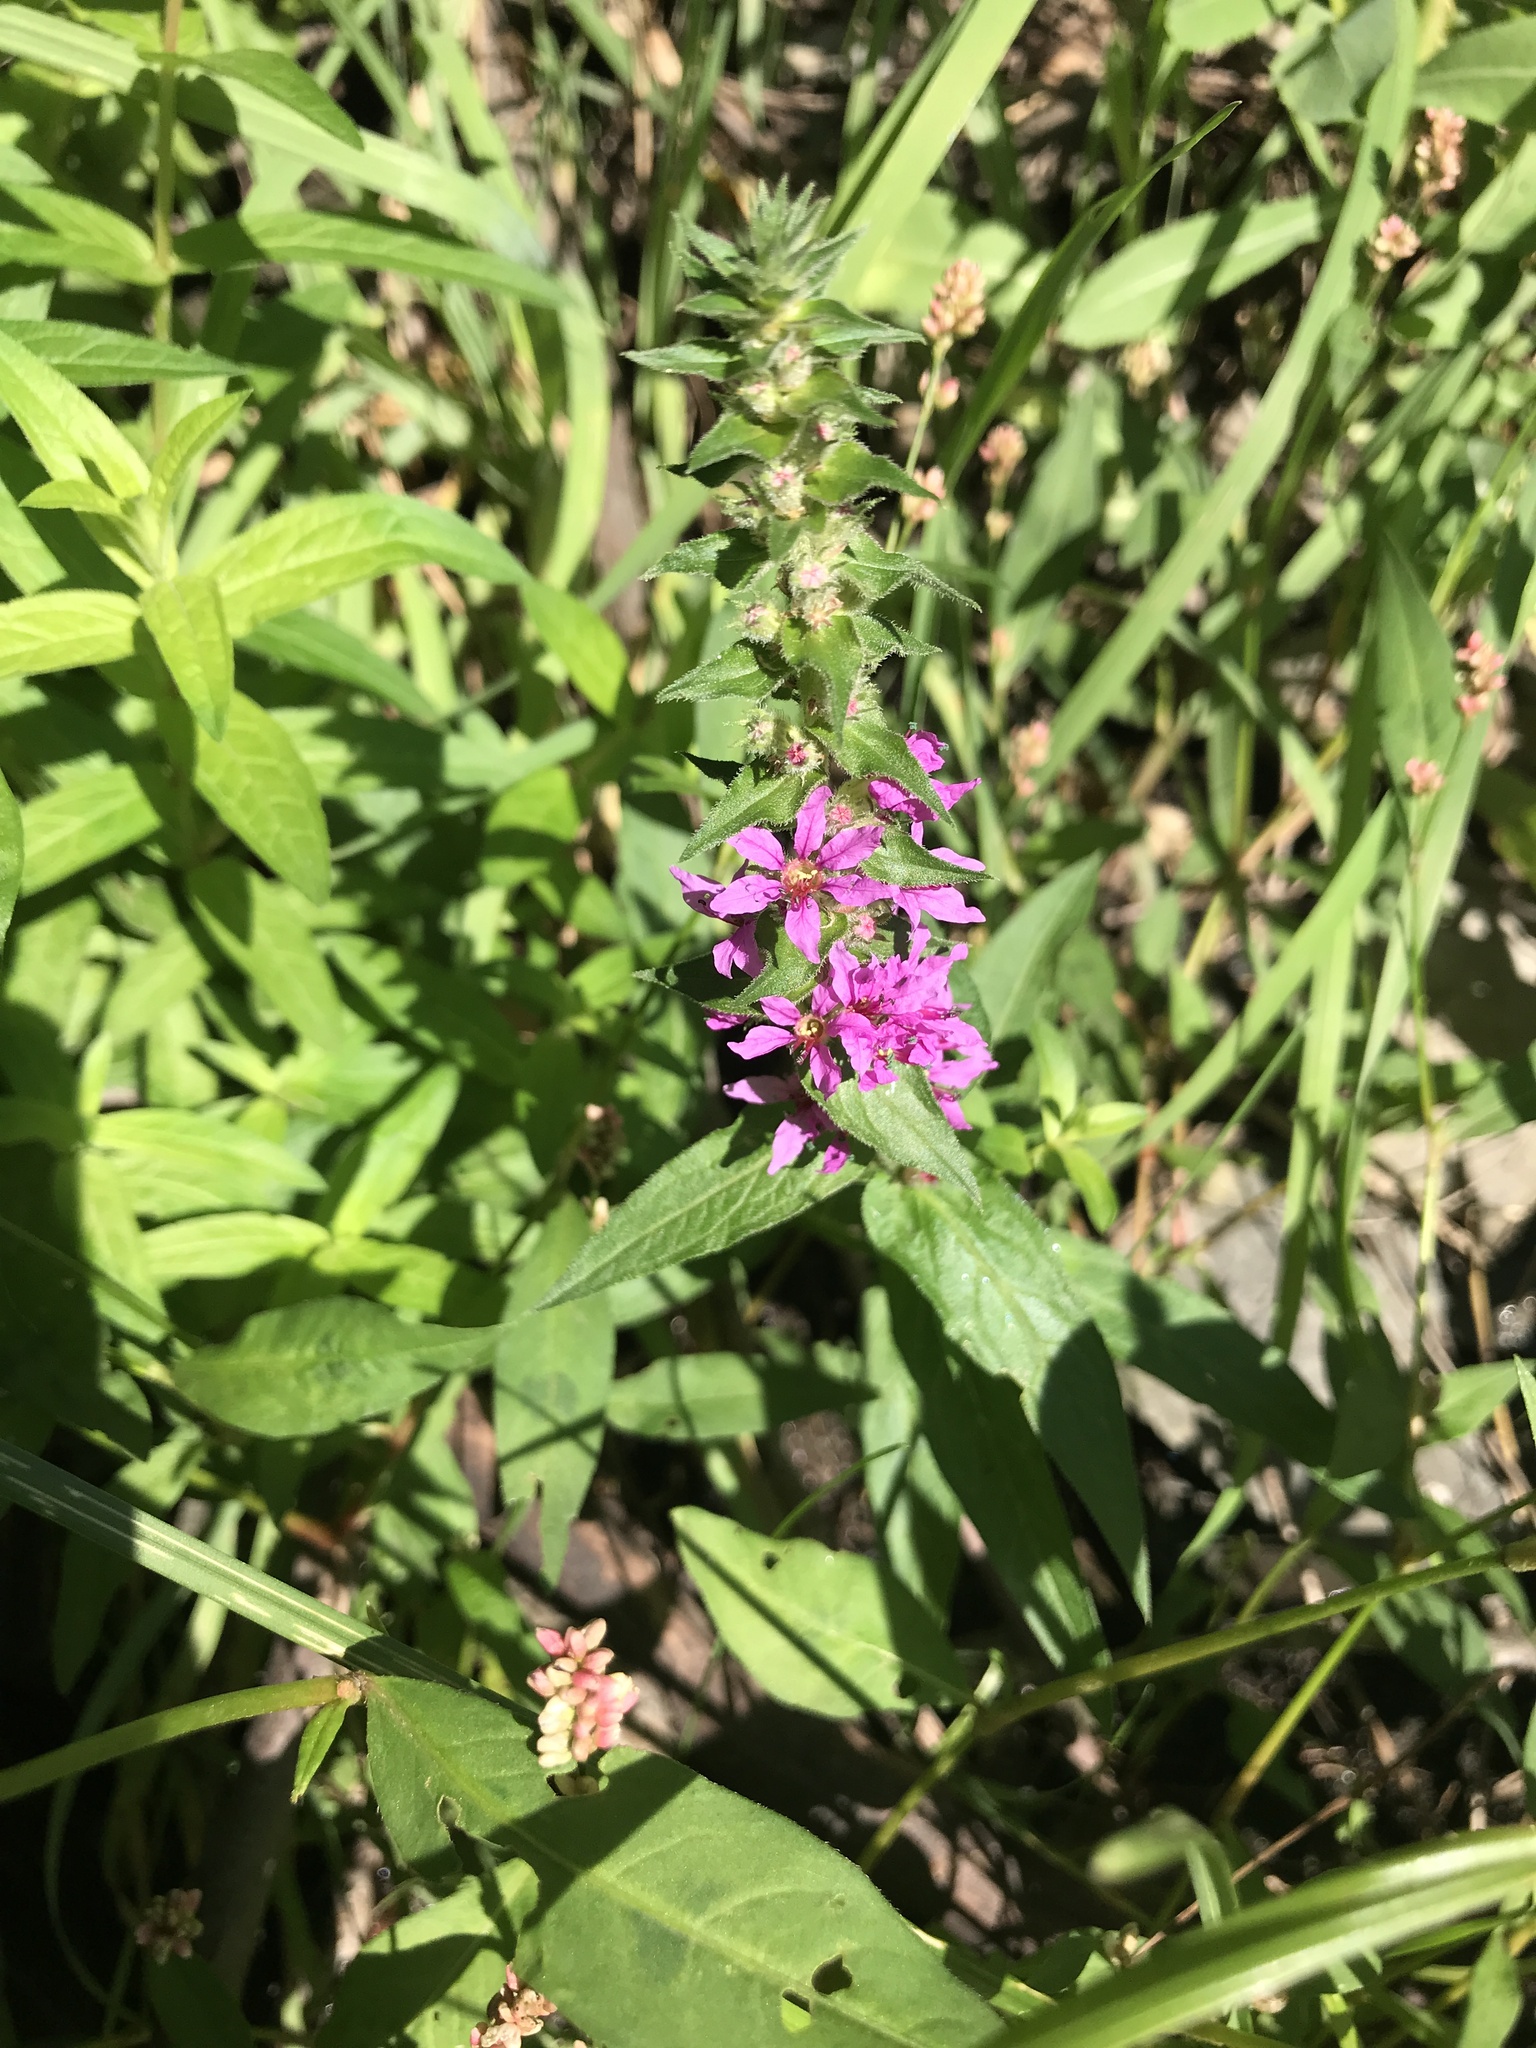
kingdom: Plantae
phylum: Tracheophyta
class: Magnoliopsida
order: Myrtales
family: Lythraceae
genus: Lythrum
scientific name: Lythrum salicaria
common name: Purple loosestrife
